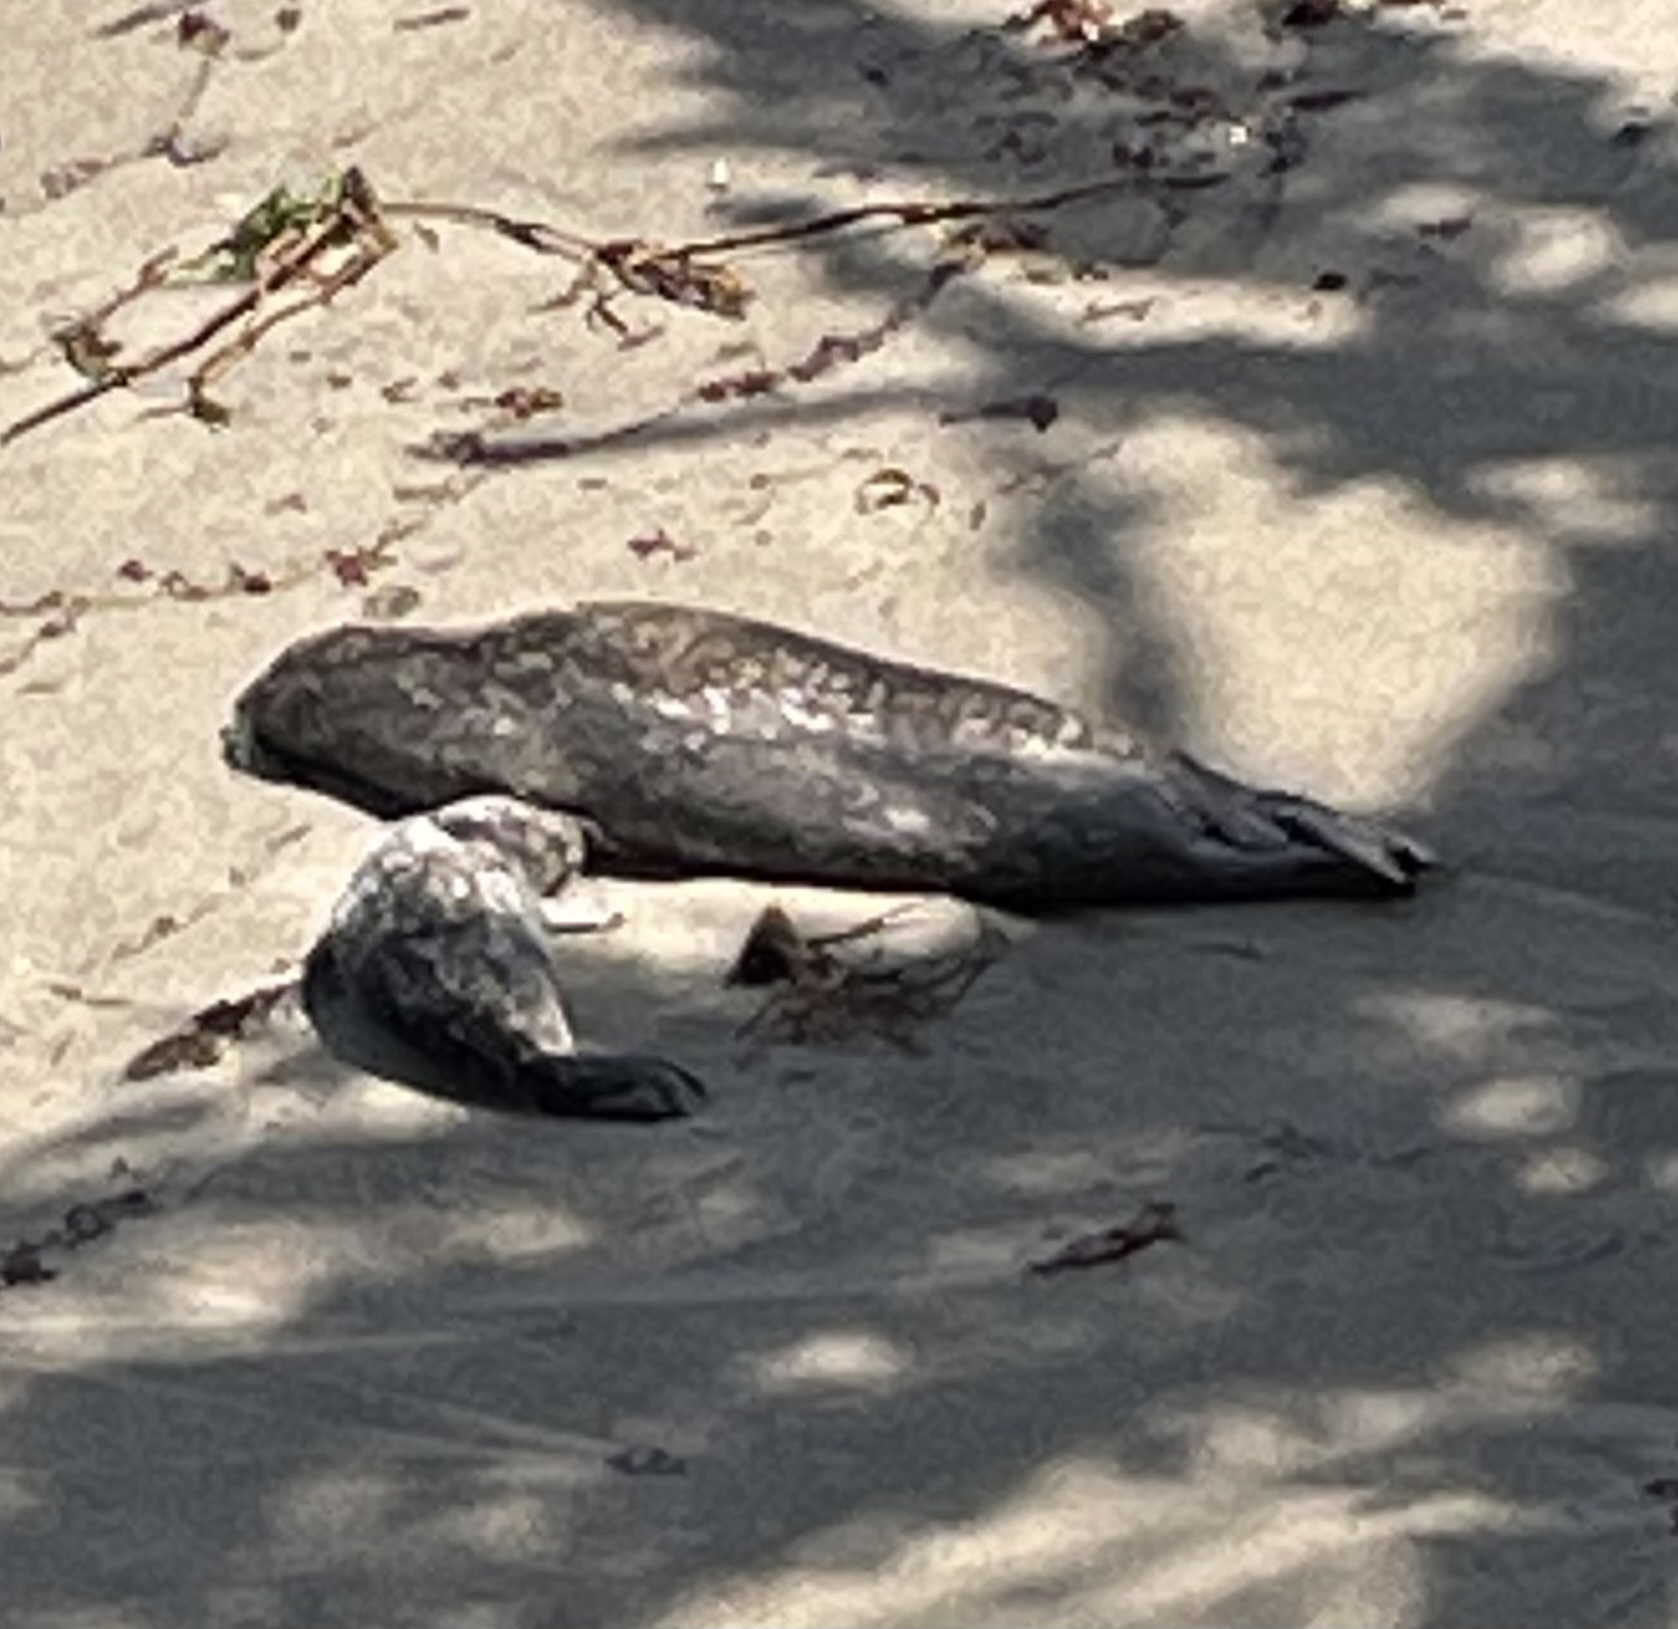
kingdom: Animalia
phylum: Chordata
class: Mammalia
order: Carnivora
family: Phocidae
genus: Phoca
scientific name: Phoca vitulina
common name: Harbor seal
